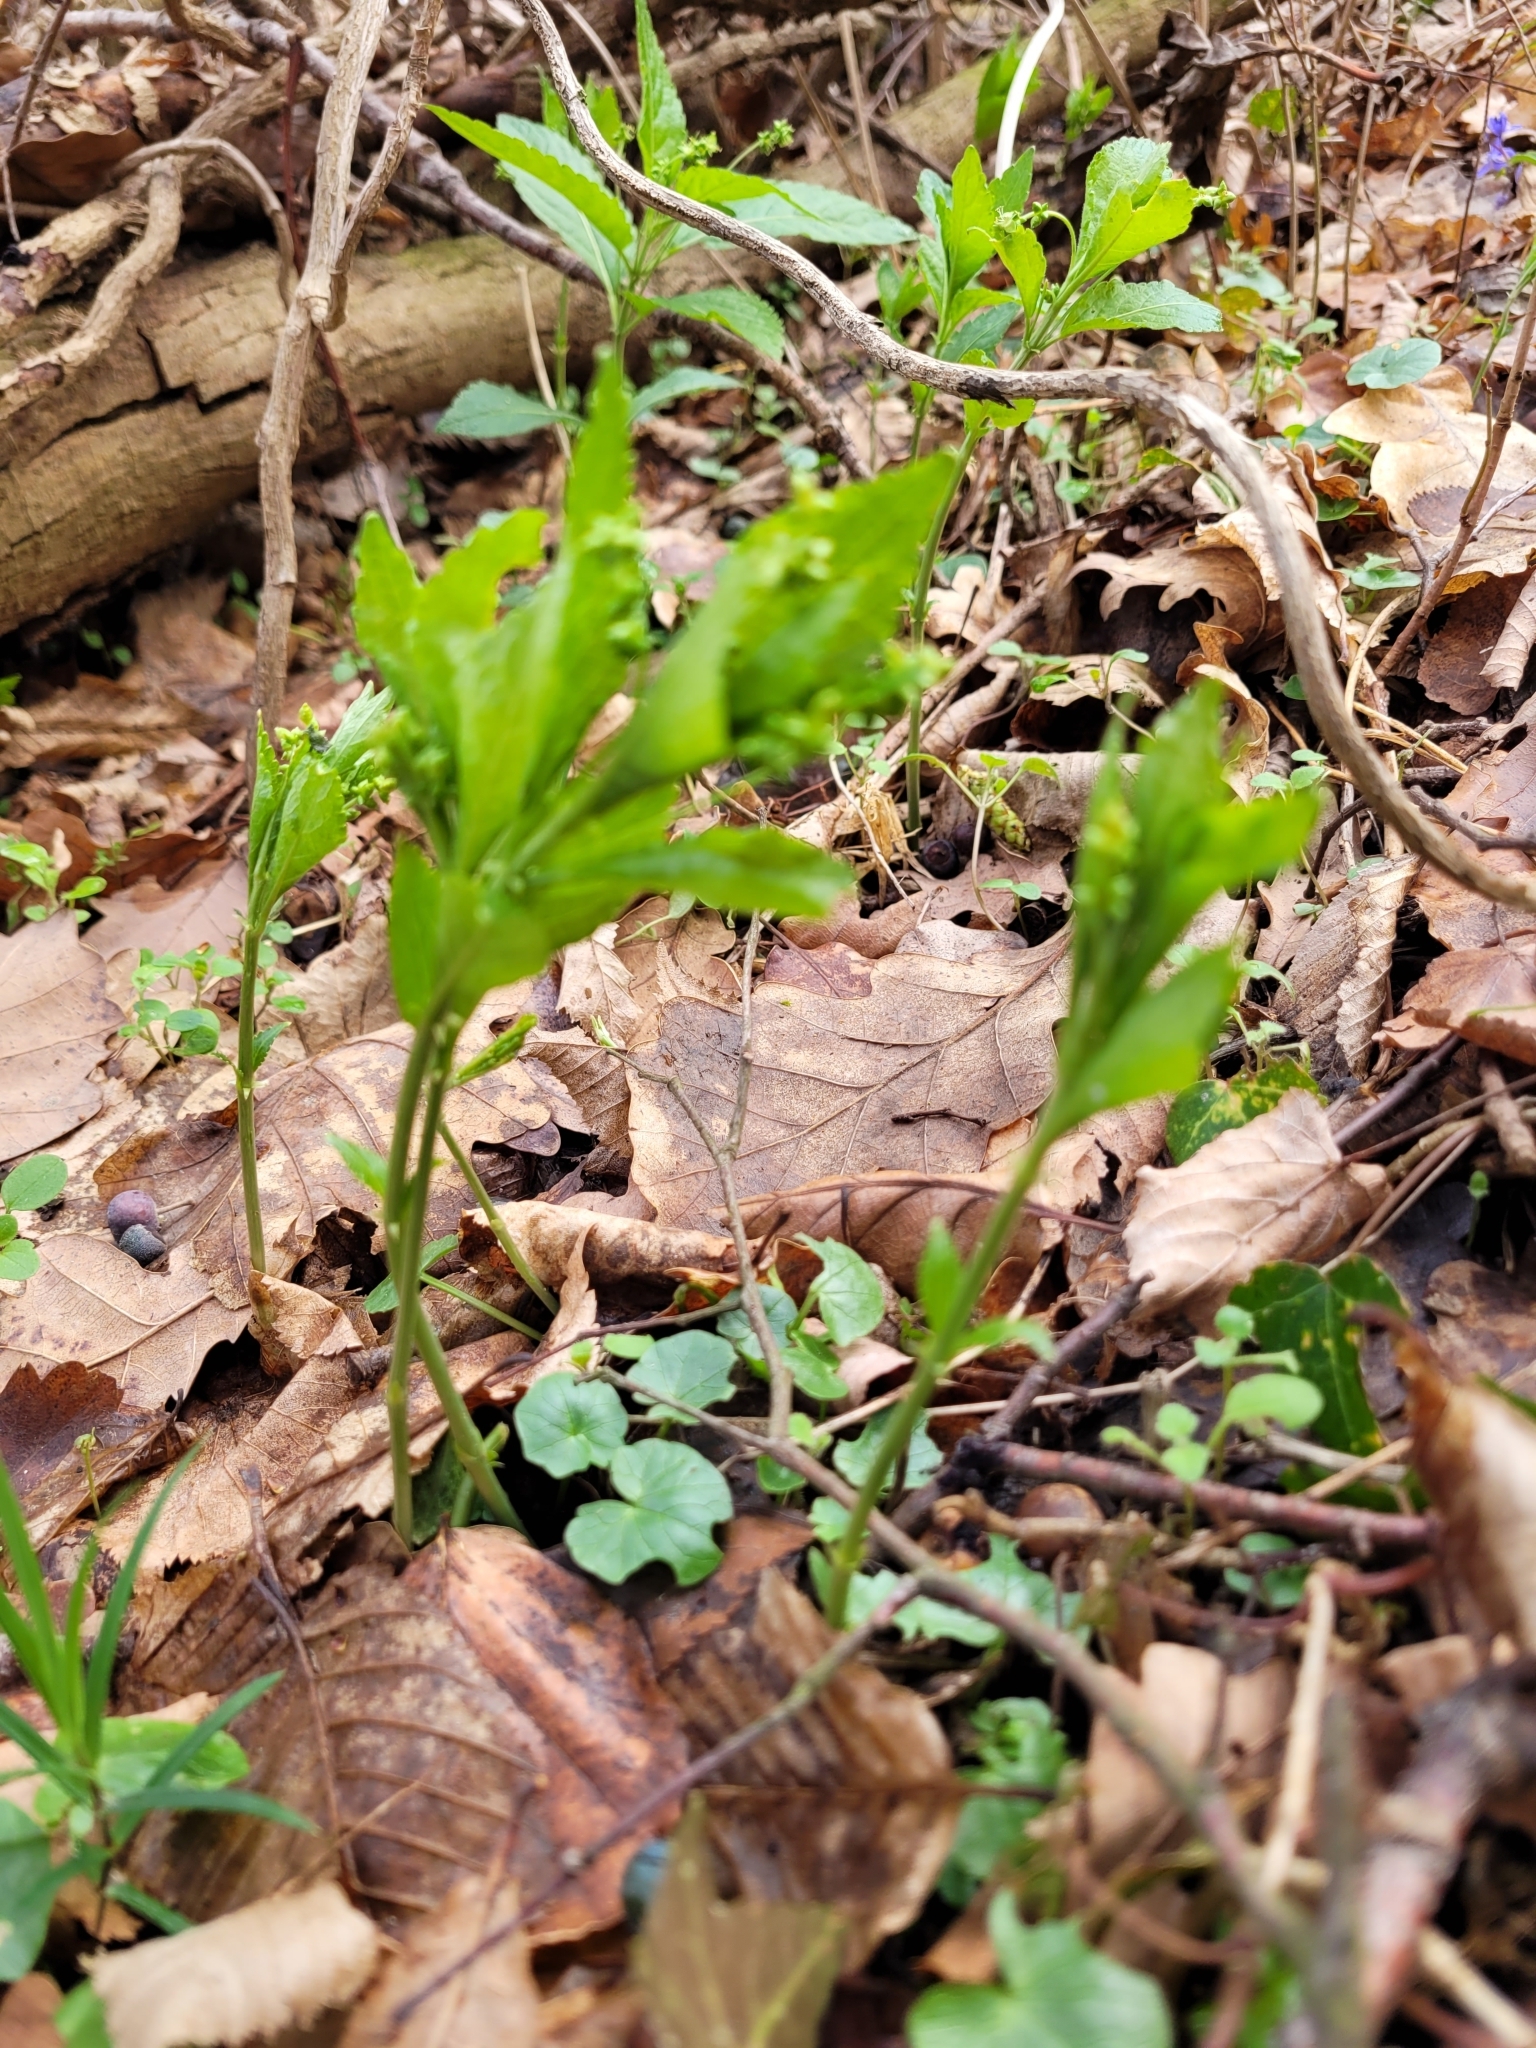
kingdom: Plantae
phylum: Tracheophyta
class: Magnoliopsida
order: Malpighiales
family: Euphorbiaceae
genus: Mercurialis
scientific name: Mercurialis perennis
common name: Dog mercury
